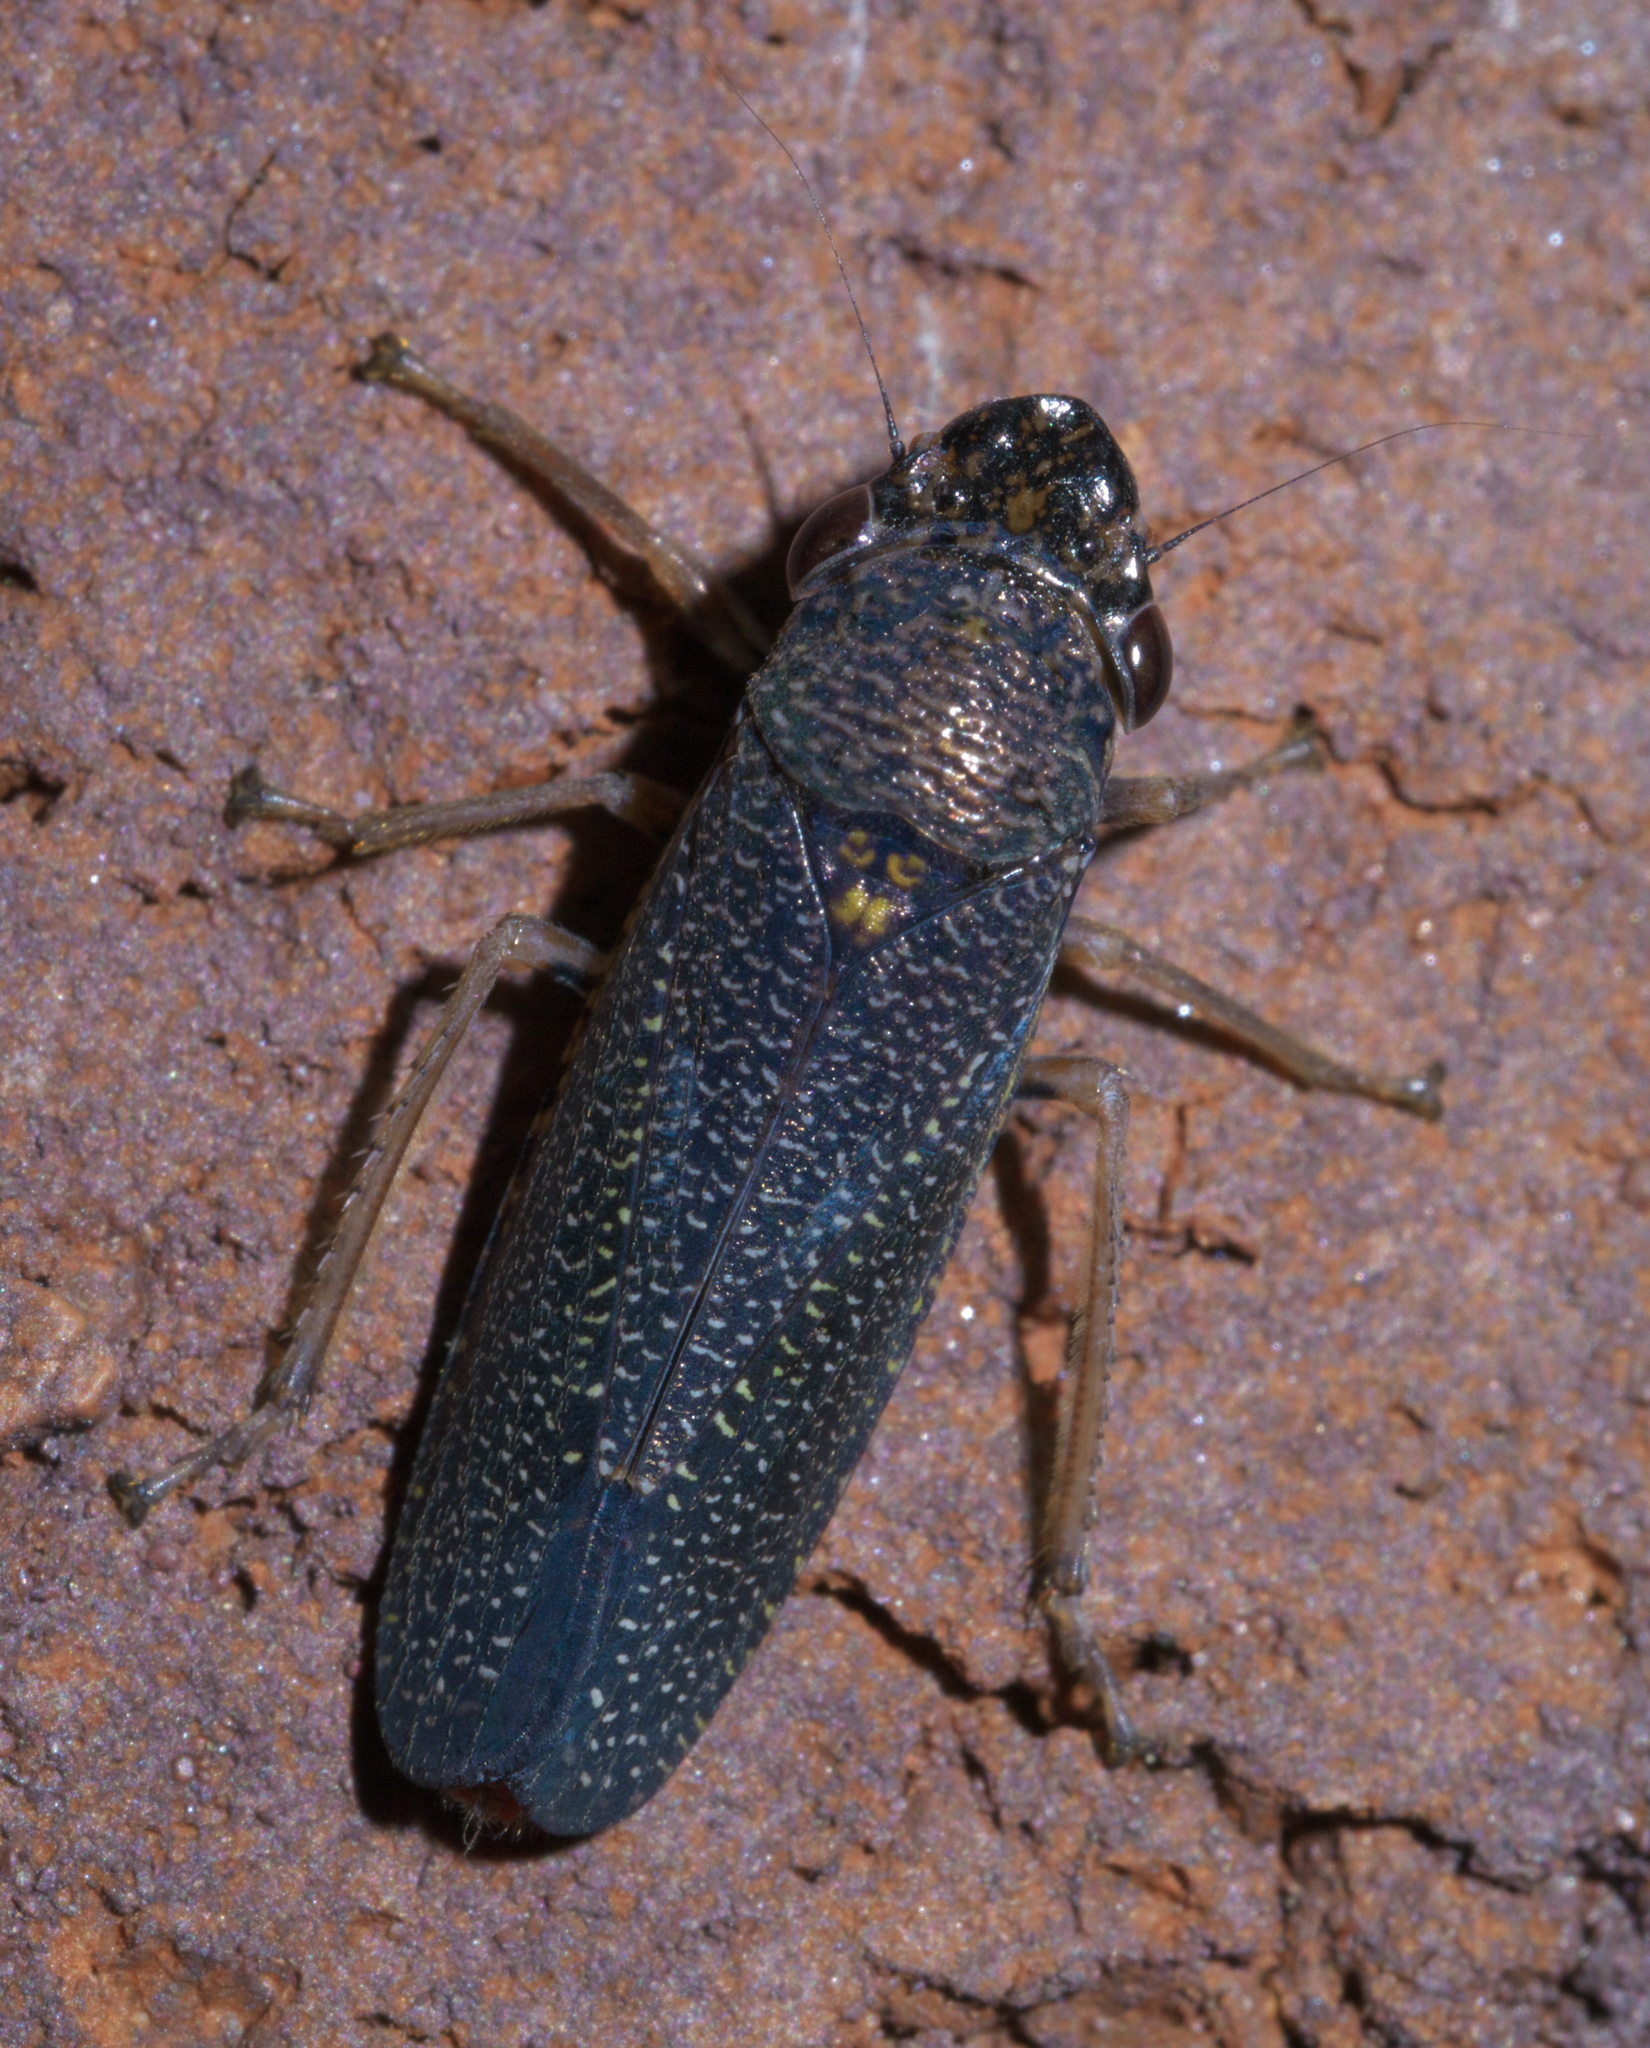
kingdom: Animalia
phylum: Arthropoda
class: Insecta
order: Hemiptera
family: Cicadellidae
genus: Paraulacizes
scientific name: Paraulacizes irrorata
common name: Speckled sharpshooter
